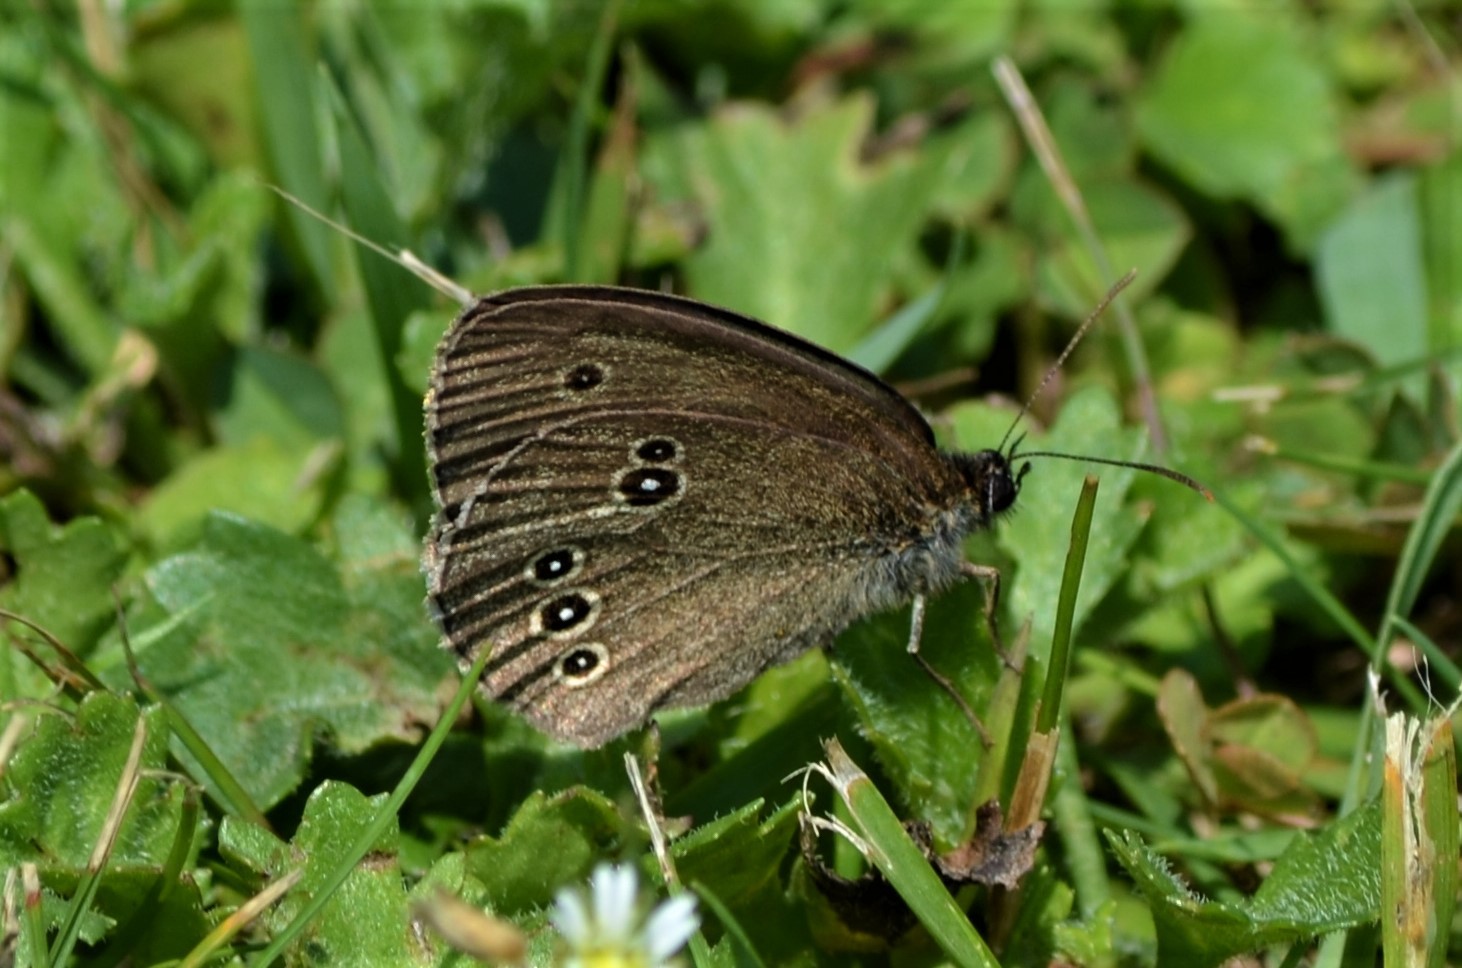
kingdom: Animalia
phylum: Arthropoda
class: Insecta
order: Lepidoptera
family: Nymphalidae
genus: Aphantopus
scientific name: Aphantopus hyperantus
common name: Ringlet
